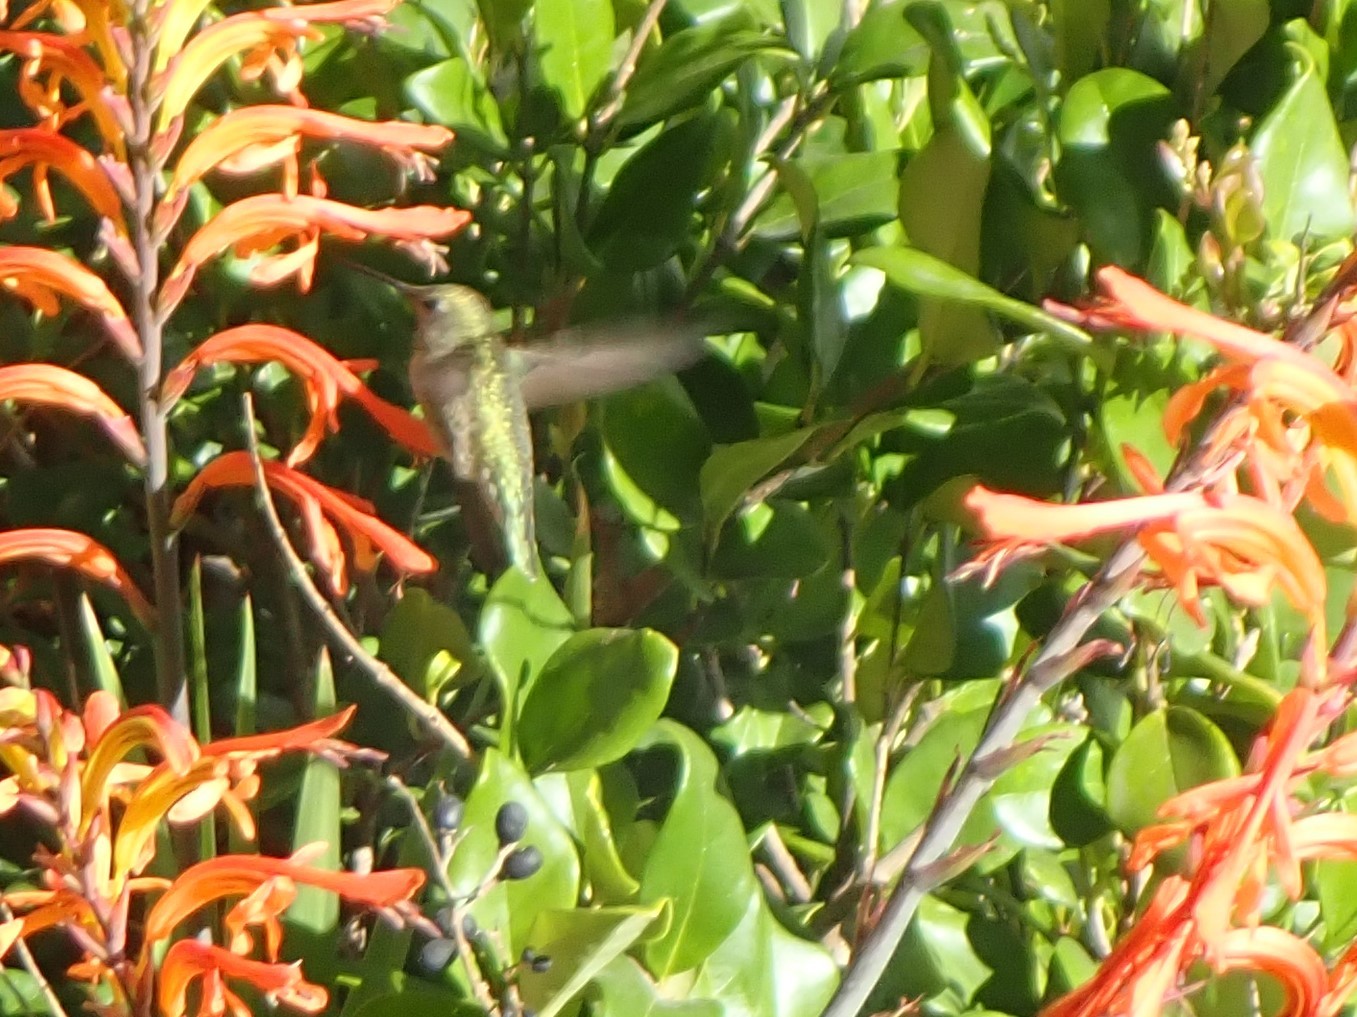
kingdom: Animalia
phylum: Chordata
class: Aves
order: Apodiformes
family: Trochilidae
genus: Calypte
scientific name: Calypte anna
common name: Anna's hummingbird
